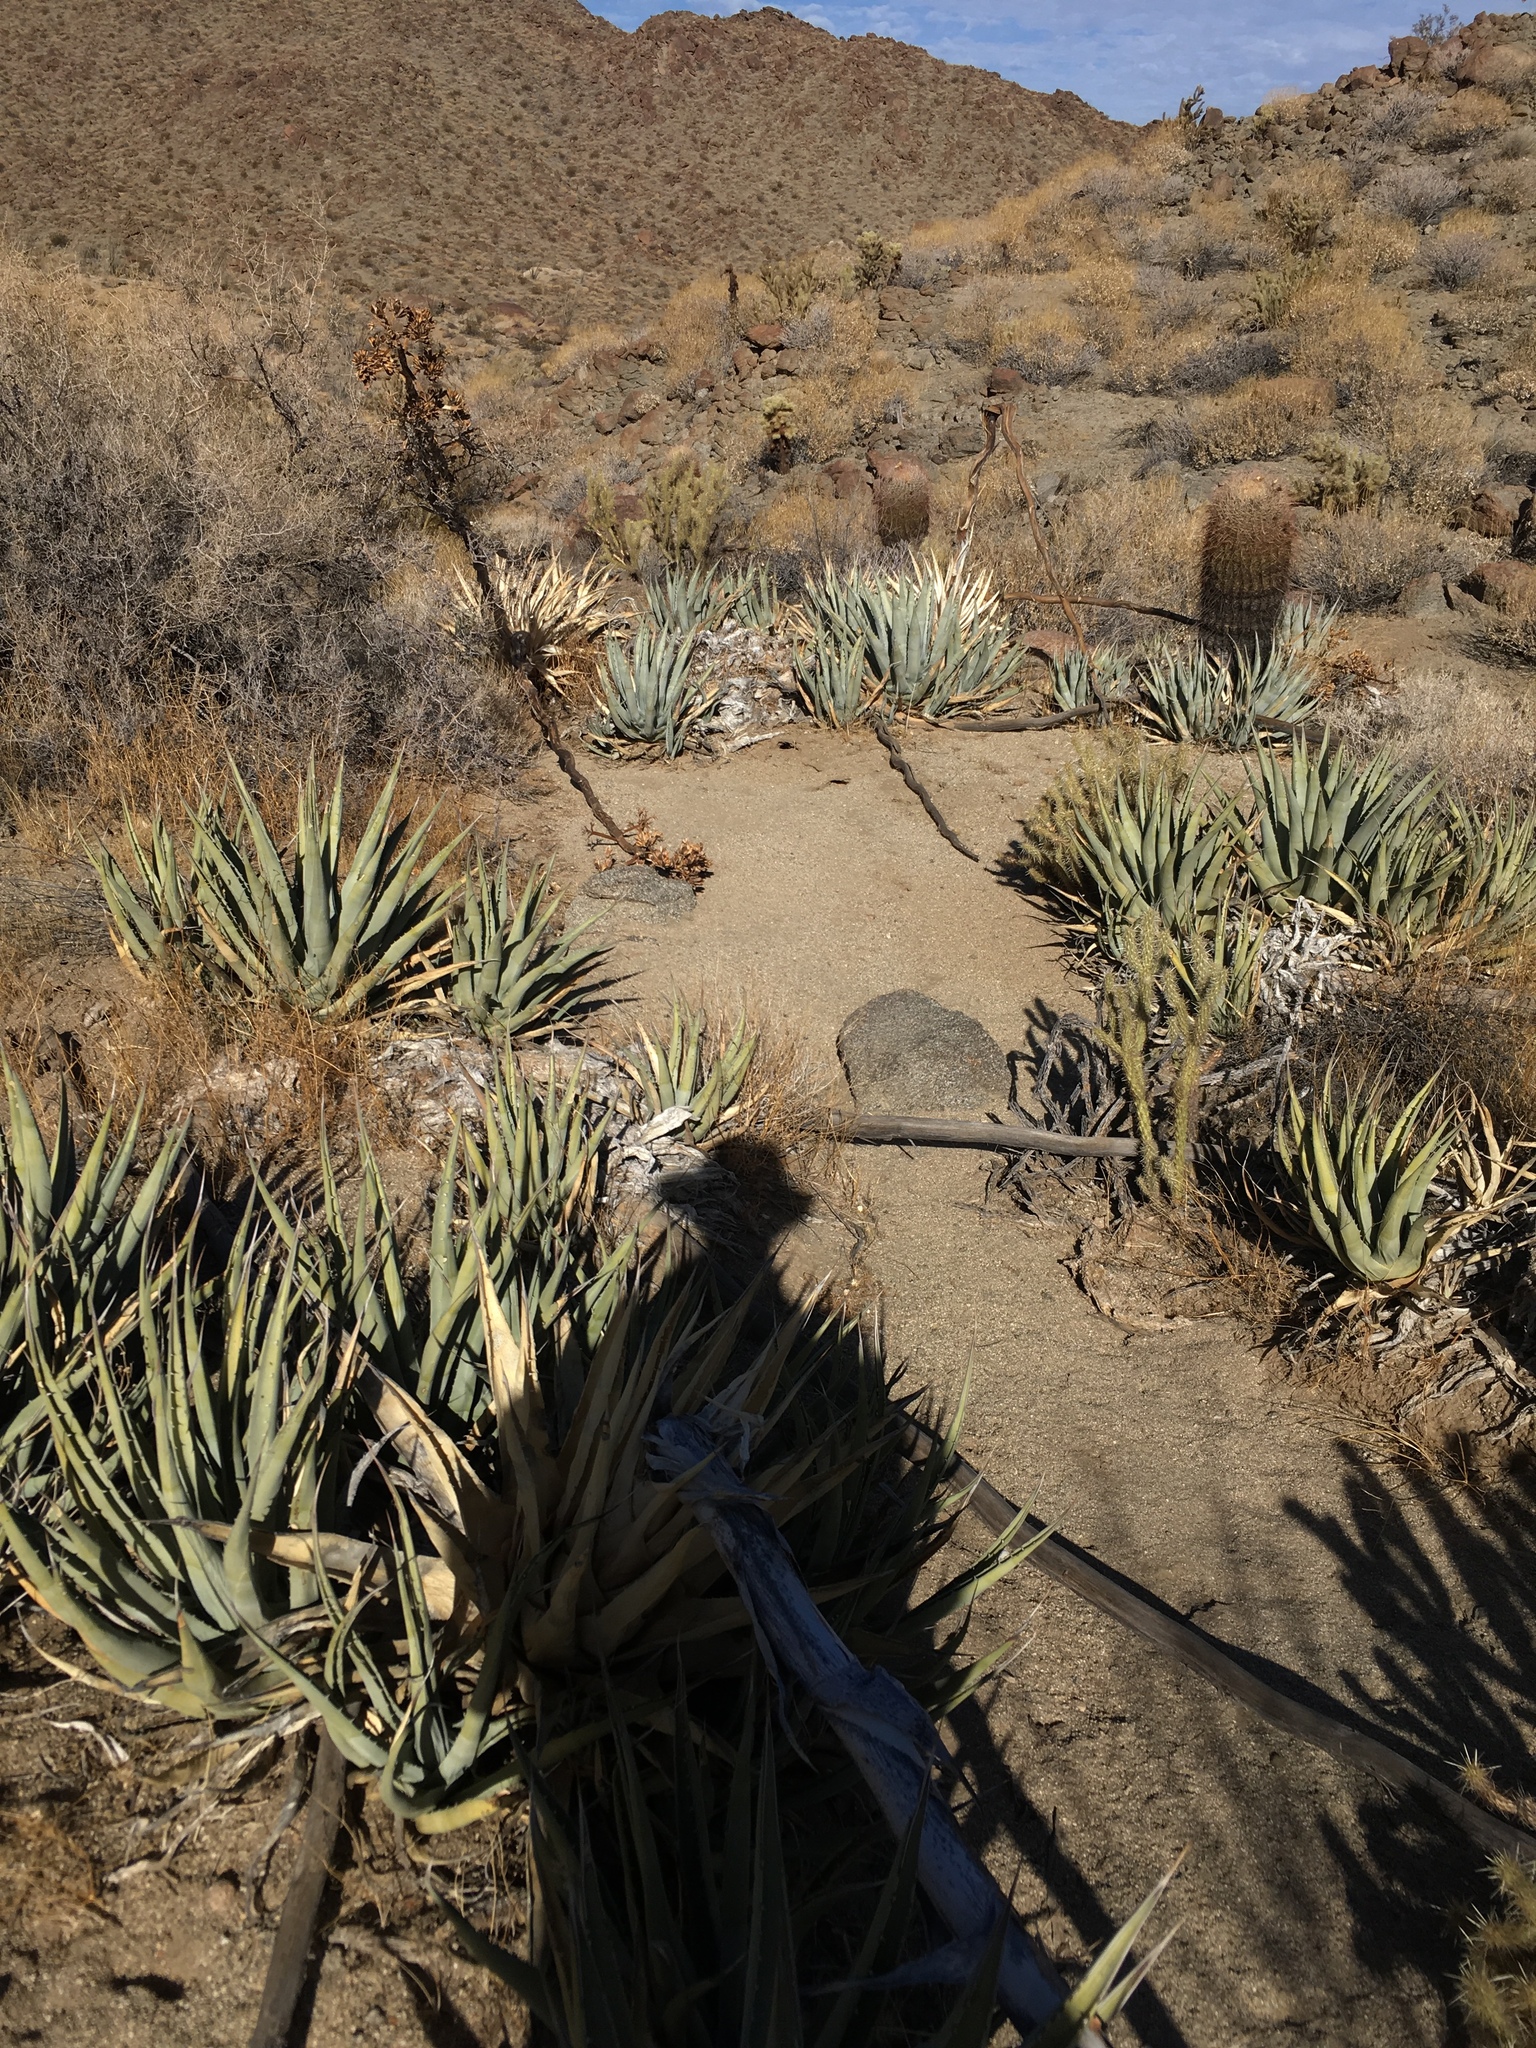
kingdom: Plantae
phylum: Tracheophyta
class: Liliopsida
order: Asparagales
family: Asparagaceae
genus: Agave
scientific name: Agave deserti
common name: Desert agave
